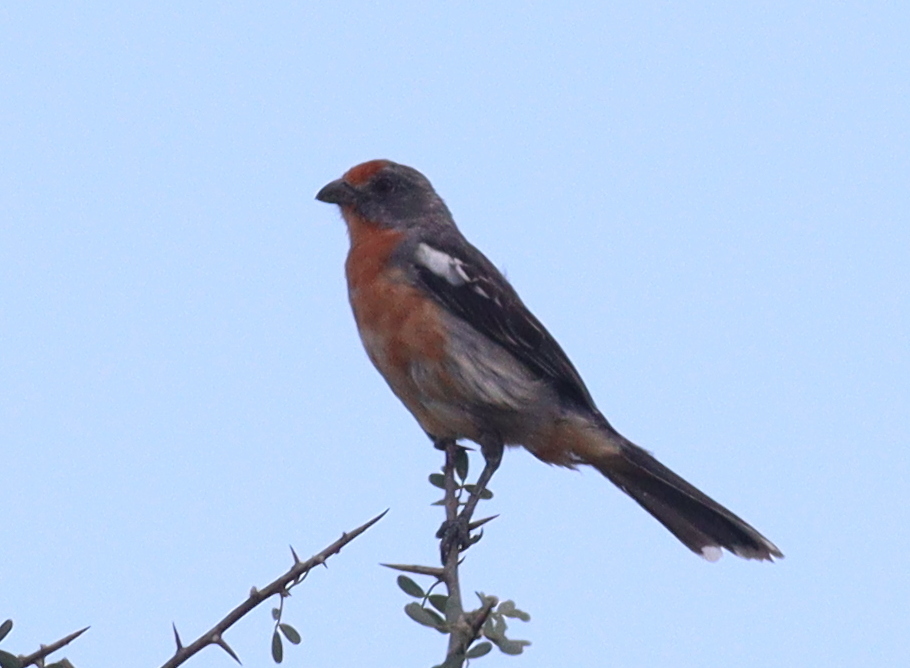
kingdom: Animalia
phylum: Chordata
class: Aves
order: Passeriformes
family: Cotingidae
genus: Phytotoma
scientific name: Phytotoma rutila
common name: White-tipped plantcutter
